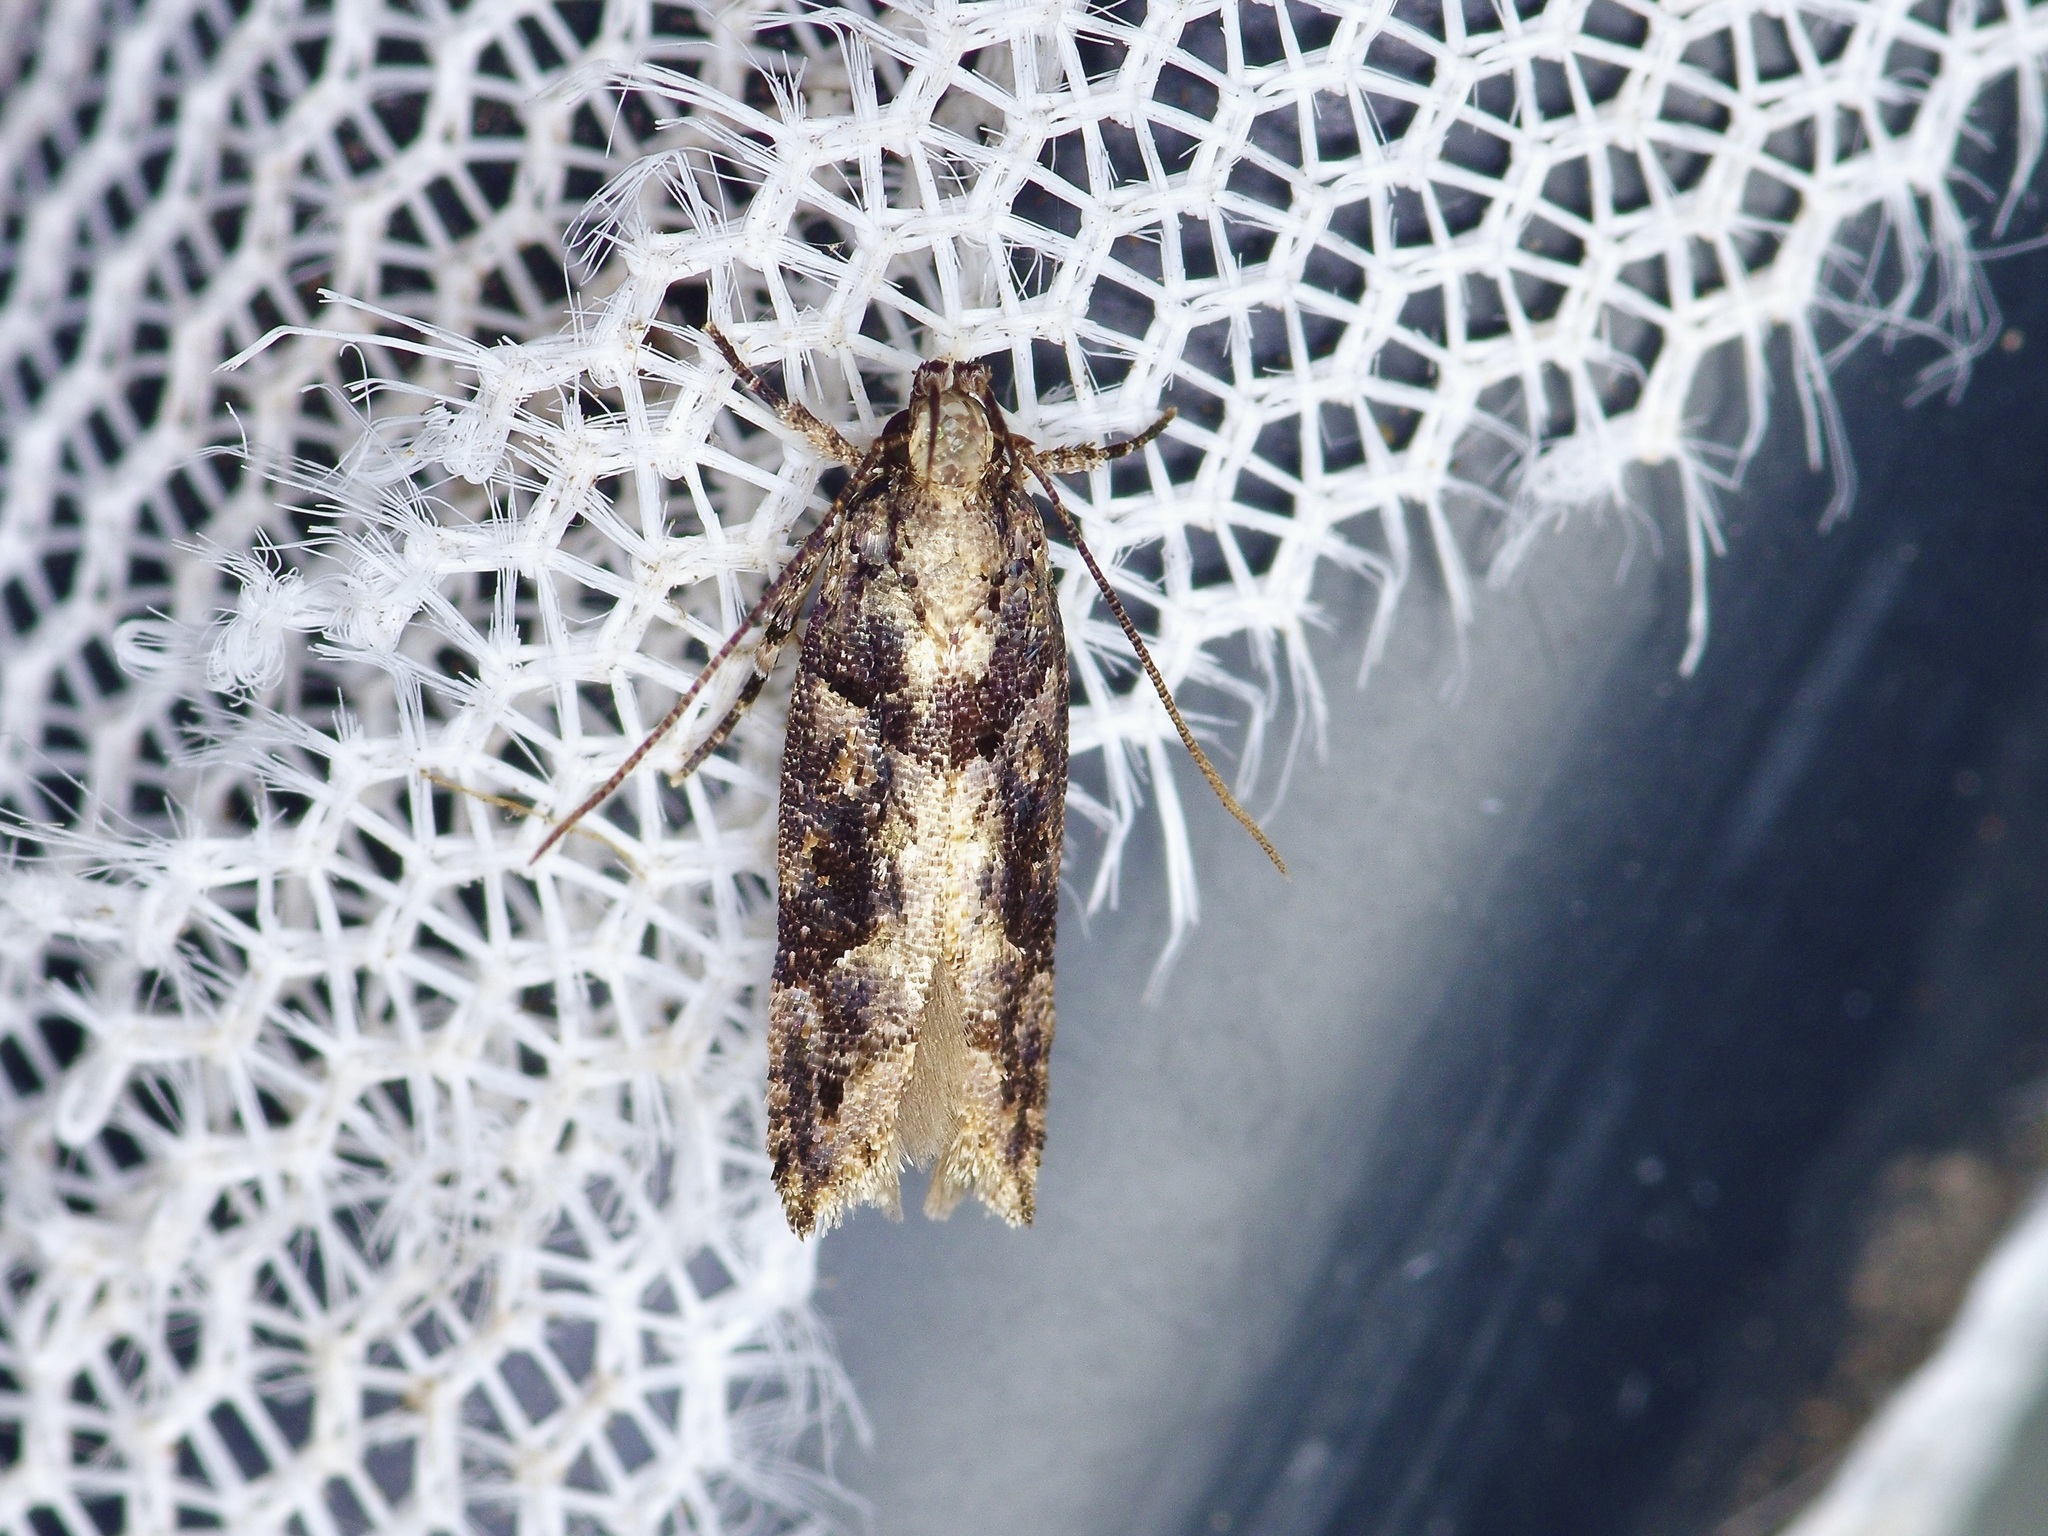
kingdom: Animalia
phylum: Arthropoda
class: Insecta
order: Lepidoptera
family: Gelechiidae
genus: Telphusa
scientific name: Telphusa perspicua
